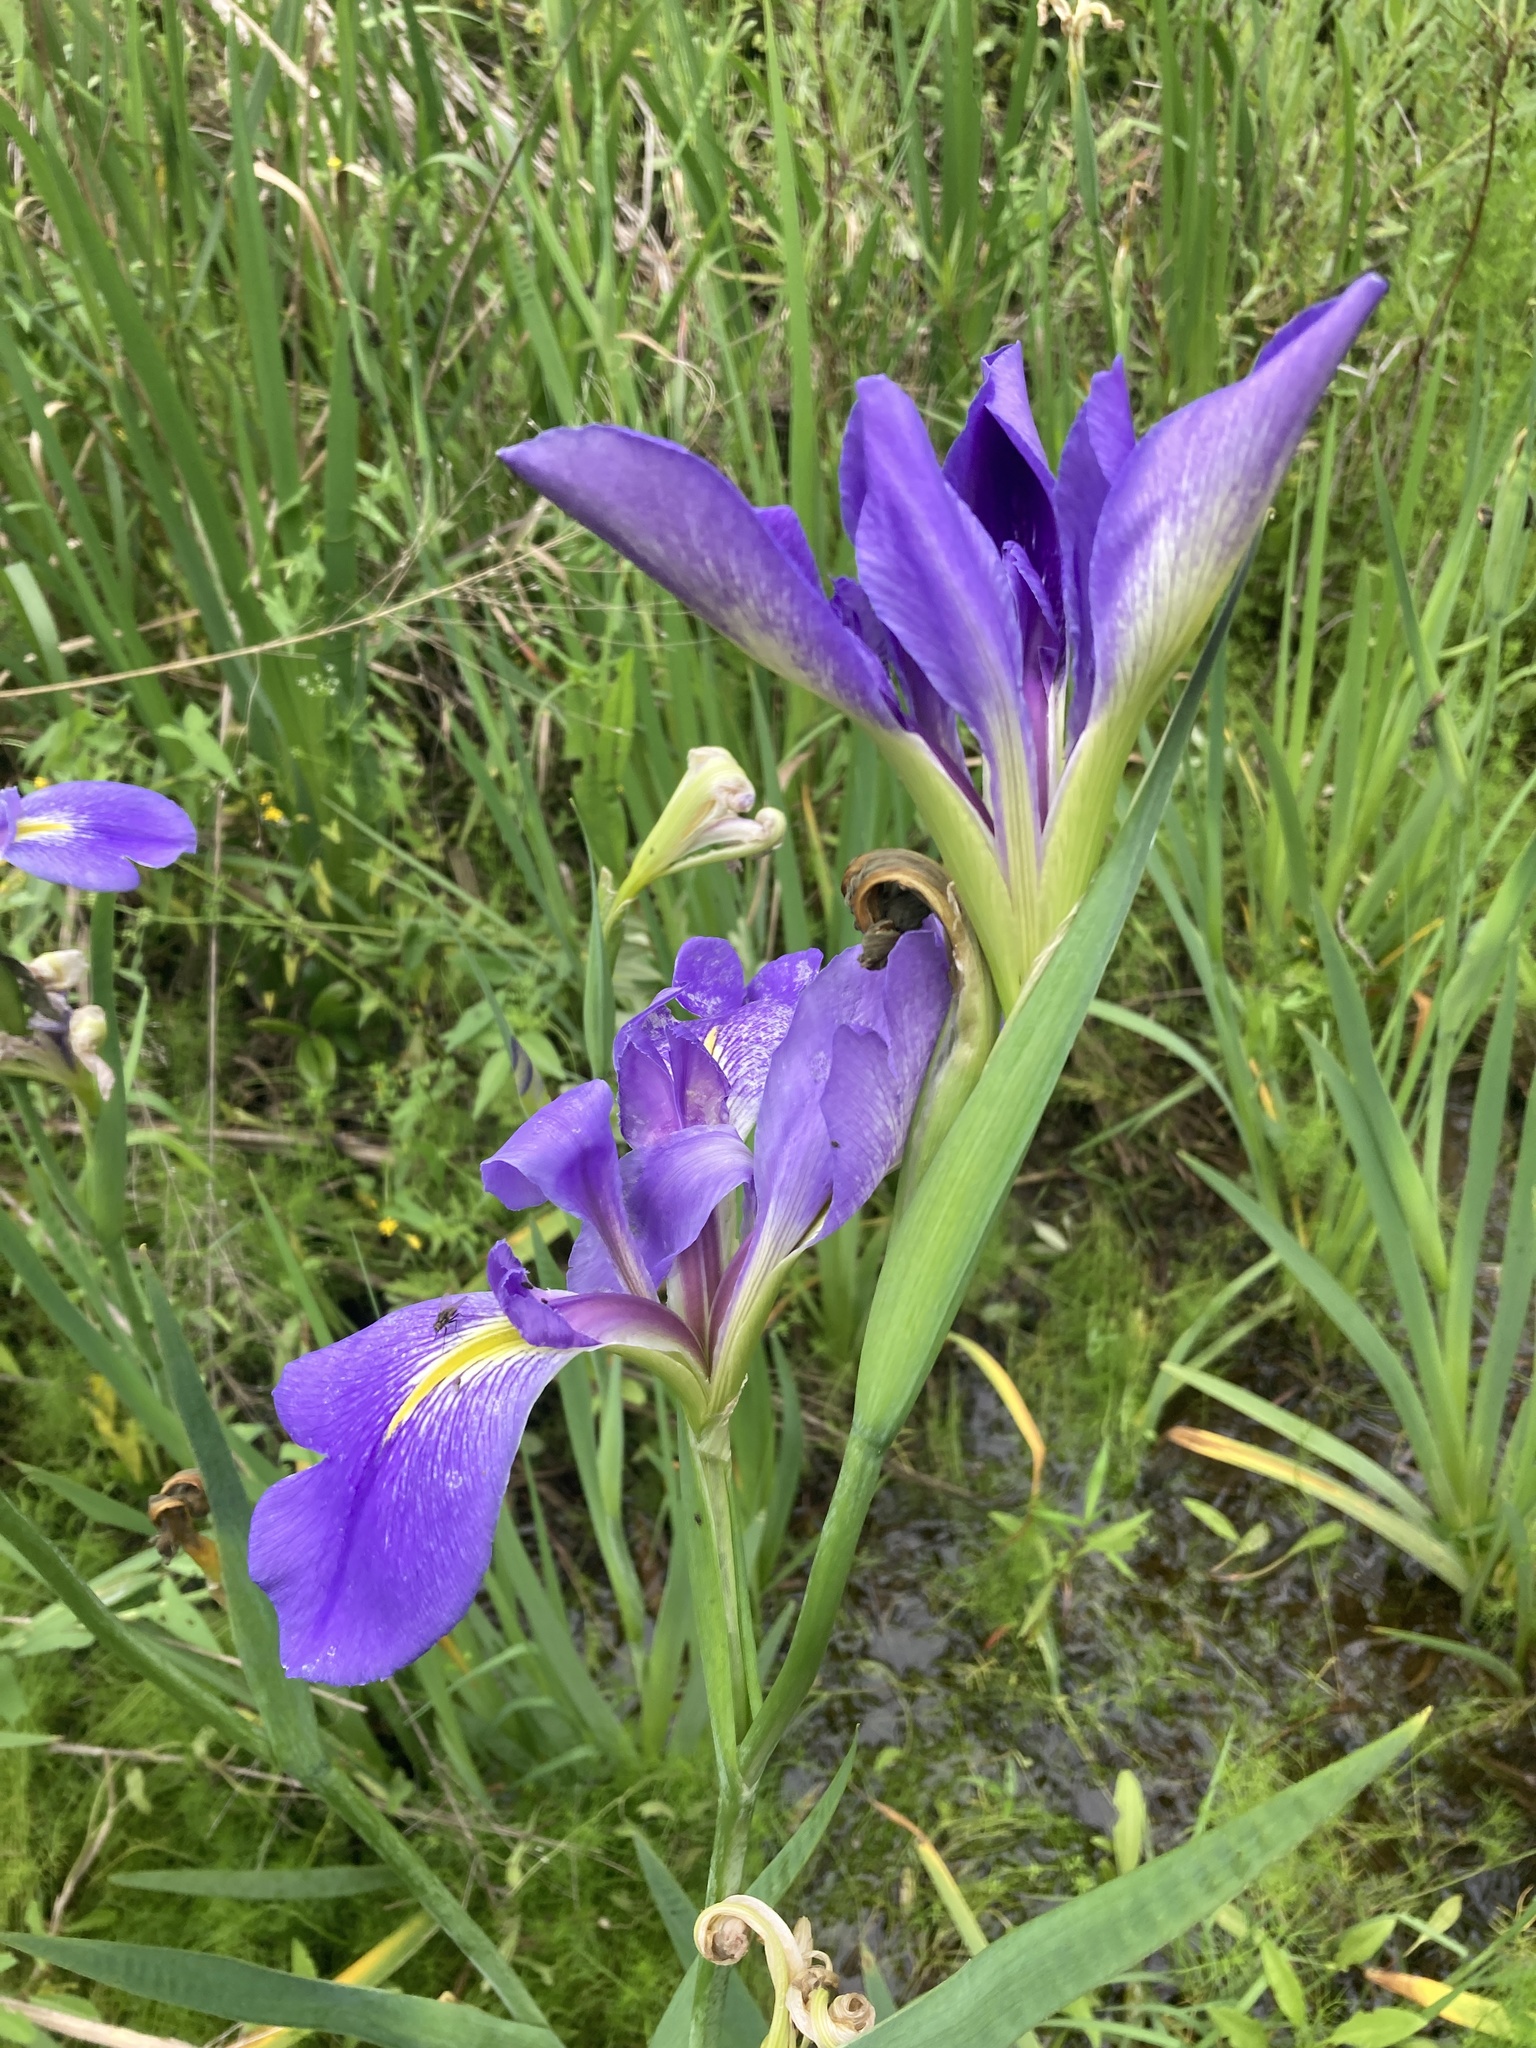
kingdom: Plantae
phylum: Tracheophyta
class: Liliopsida
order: Asparagales
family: Iridaceae
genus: Iris
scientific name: Iris giganticaerulea
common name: Giant blue iris
